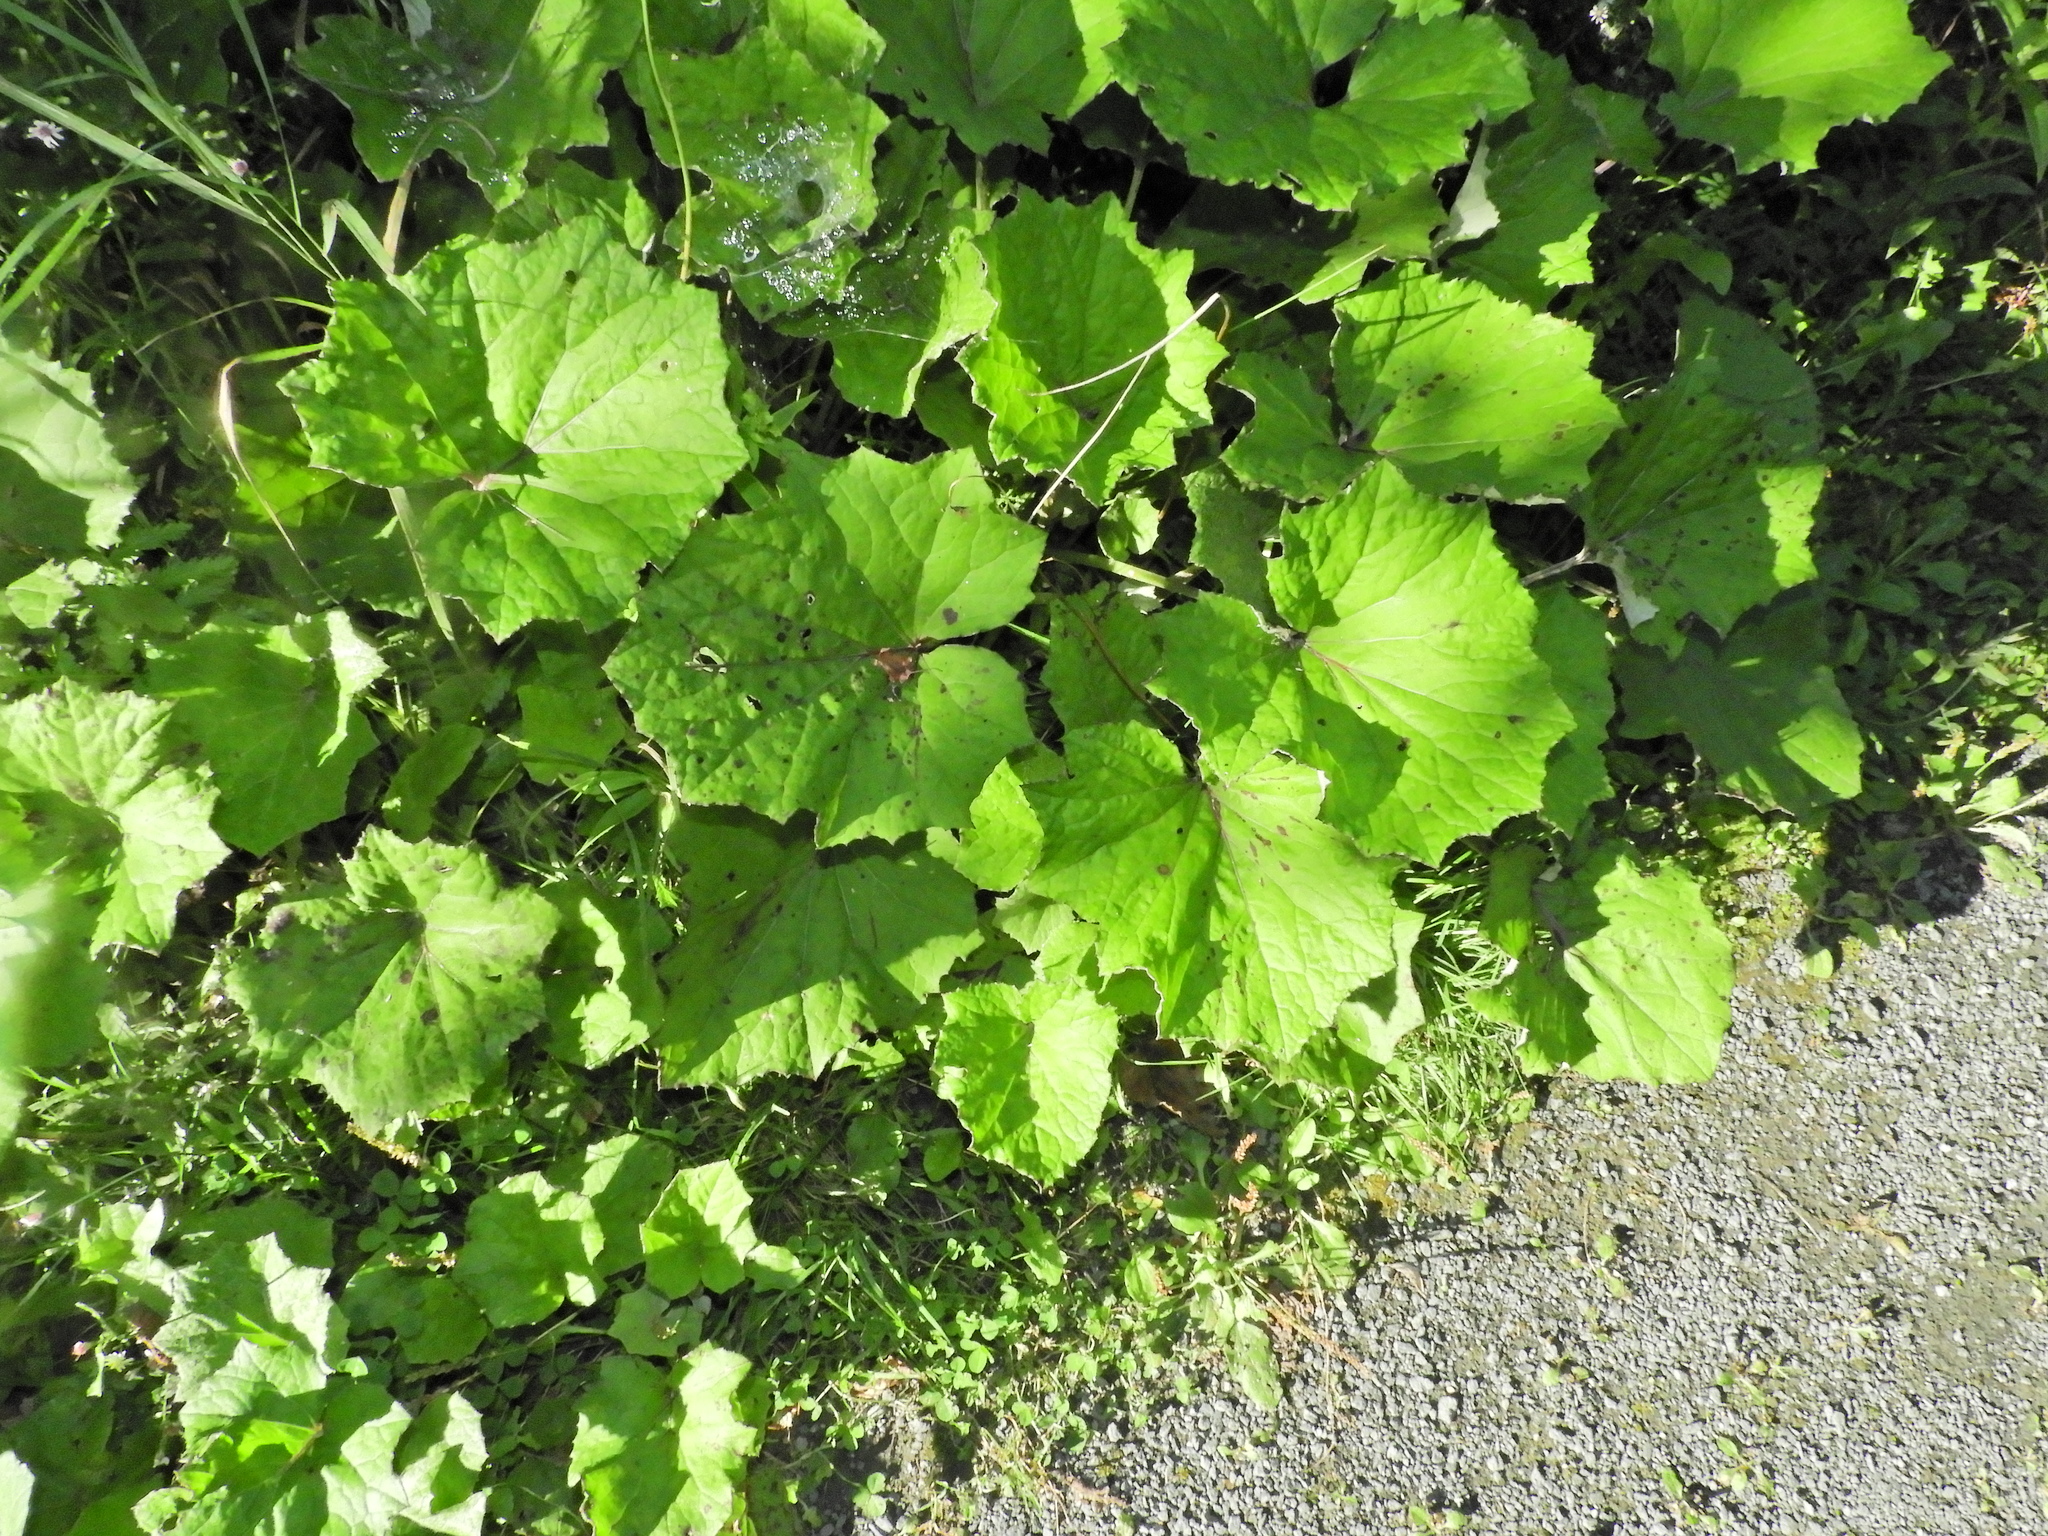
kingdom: Plantae
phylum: Tracheophyta
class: Magnoliopsida
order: Asterales
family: Asteraceae
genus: Tussilago
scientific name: Tussilago farfara
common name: Coltsfoot
